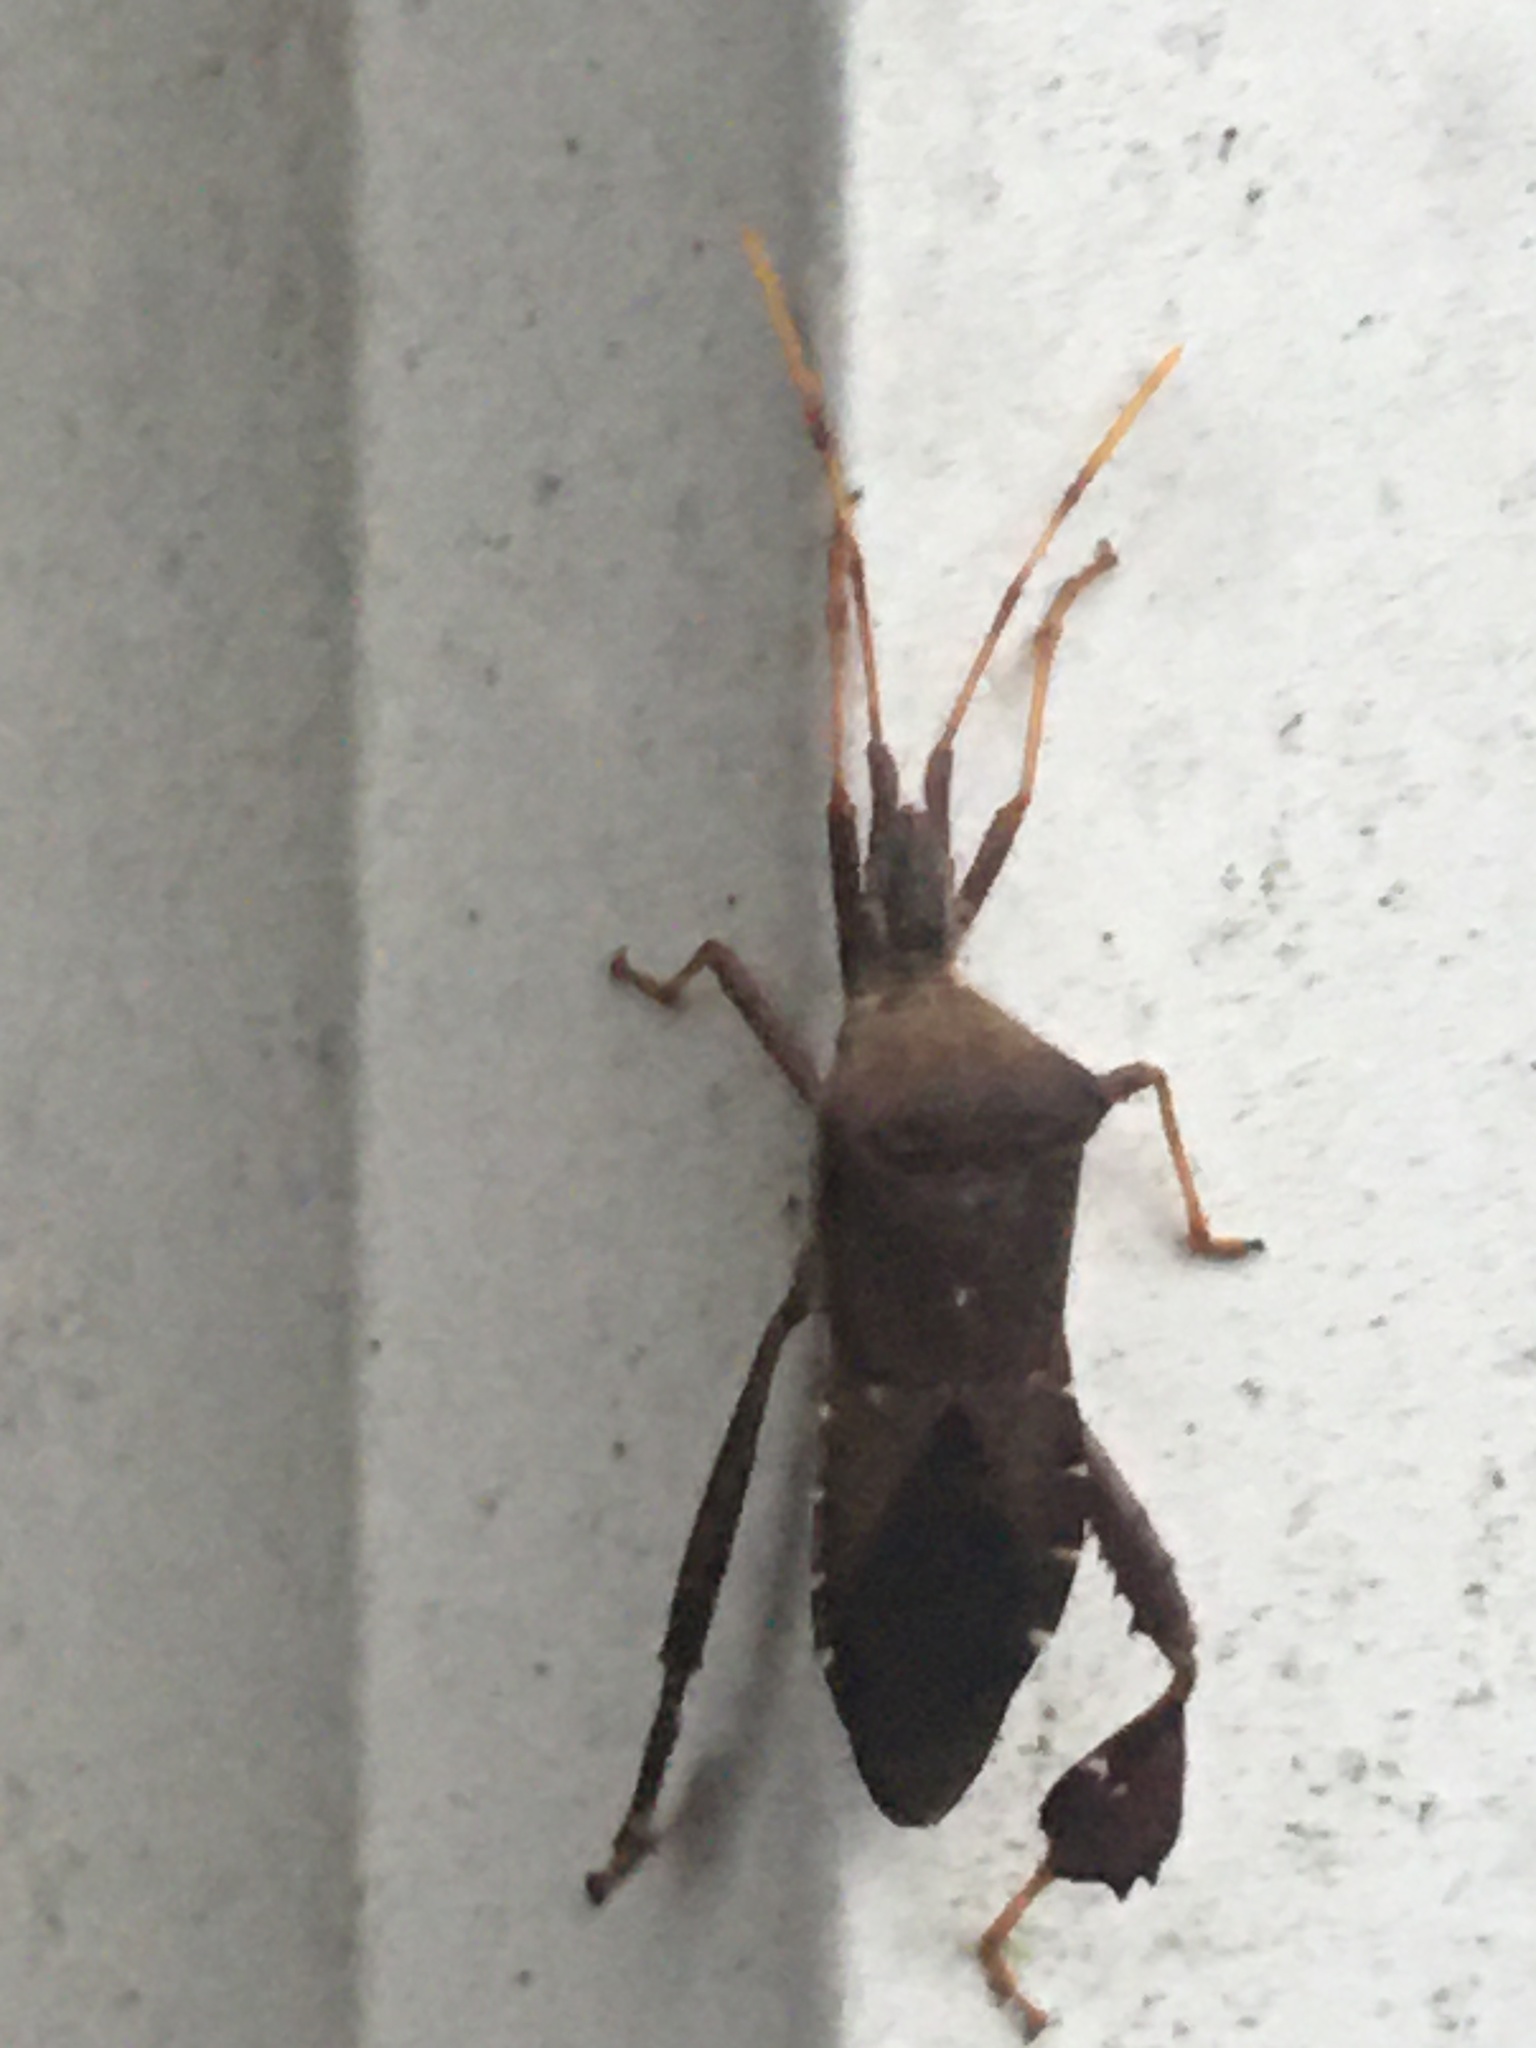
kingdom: Animalia
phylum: Arthropoda
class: Insecta
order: Hemiptera
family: Coreidae
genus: Leptoglossus
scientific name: Leptoglossus oppositus
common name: Northern leaf-footed bug
